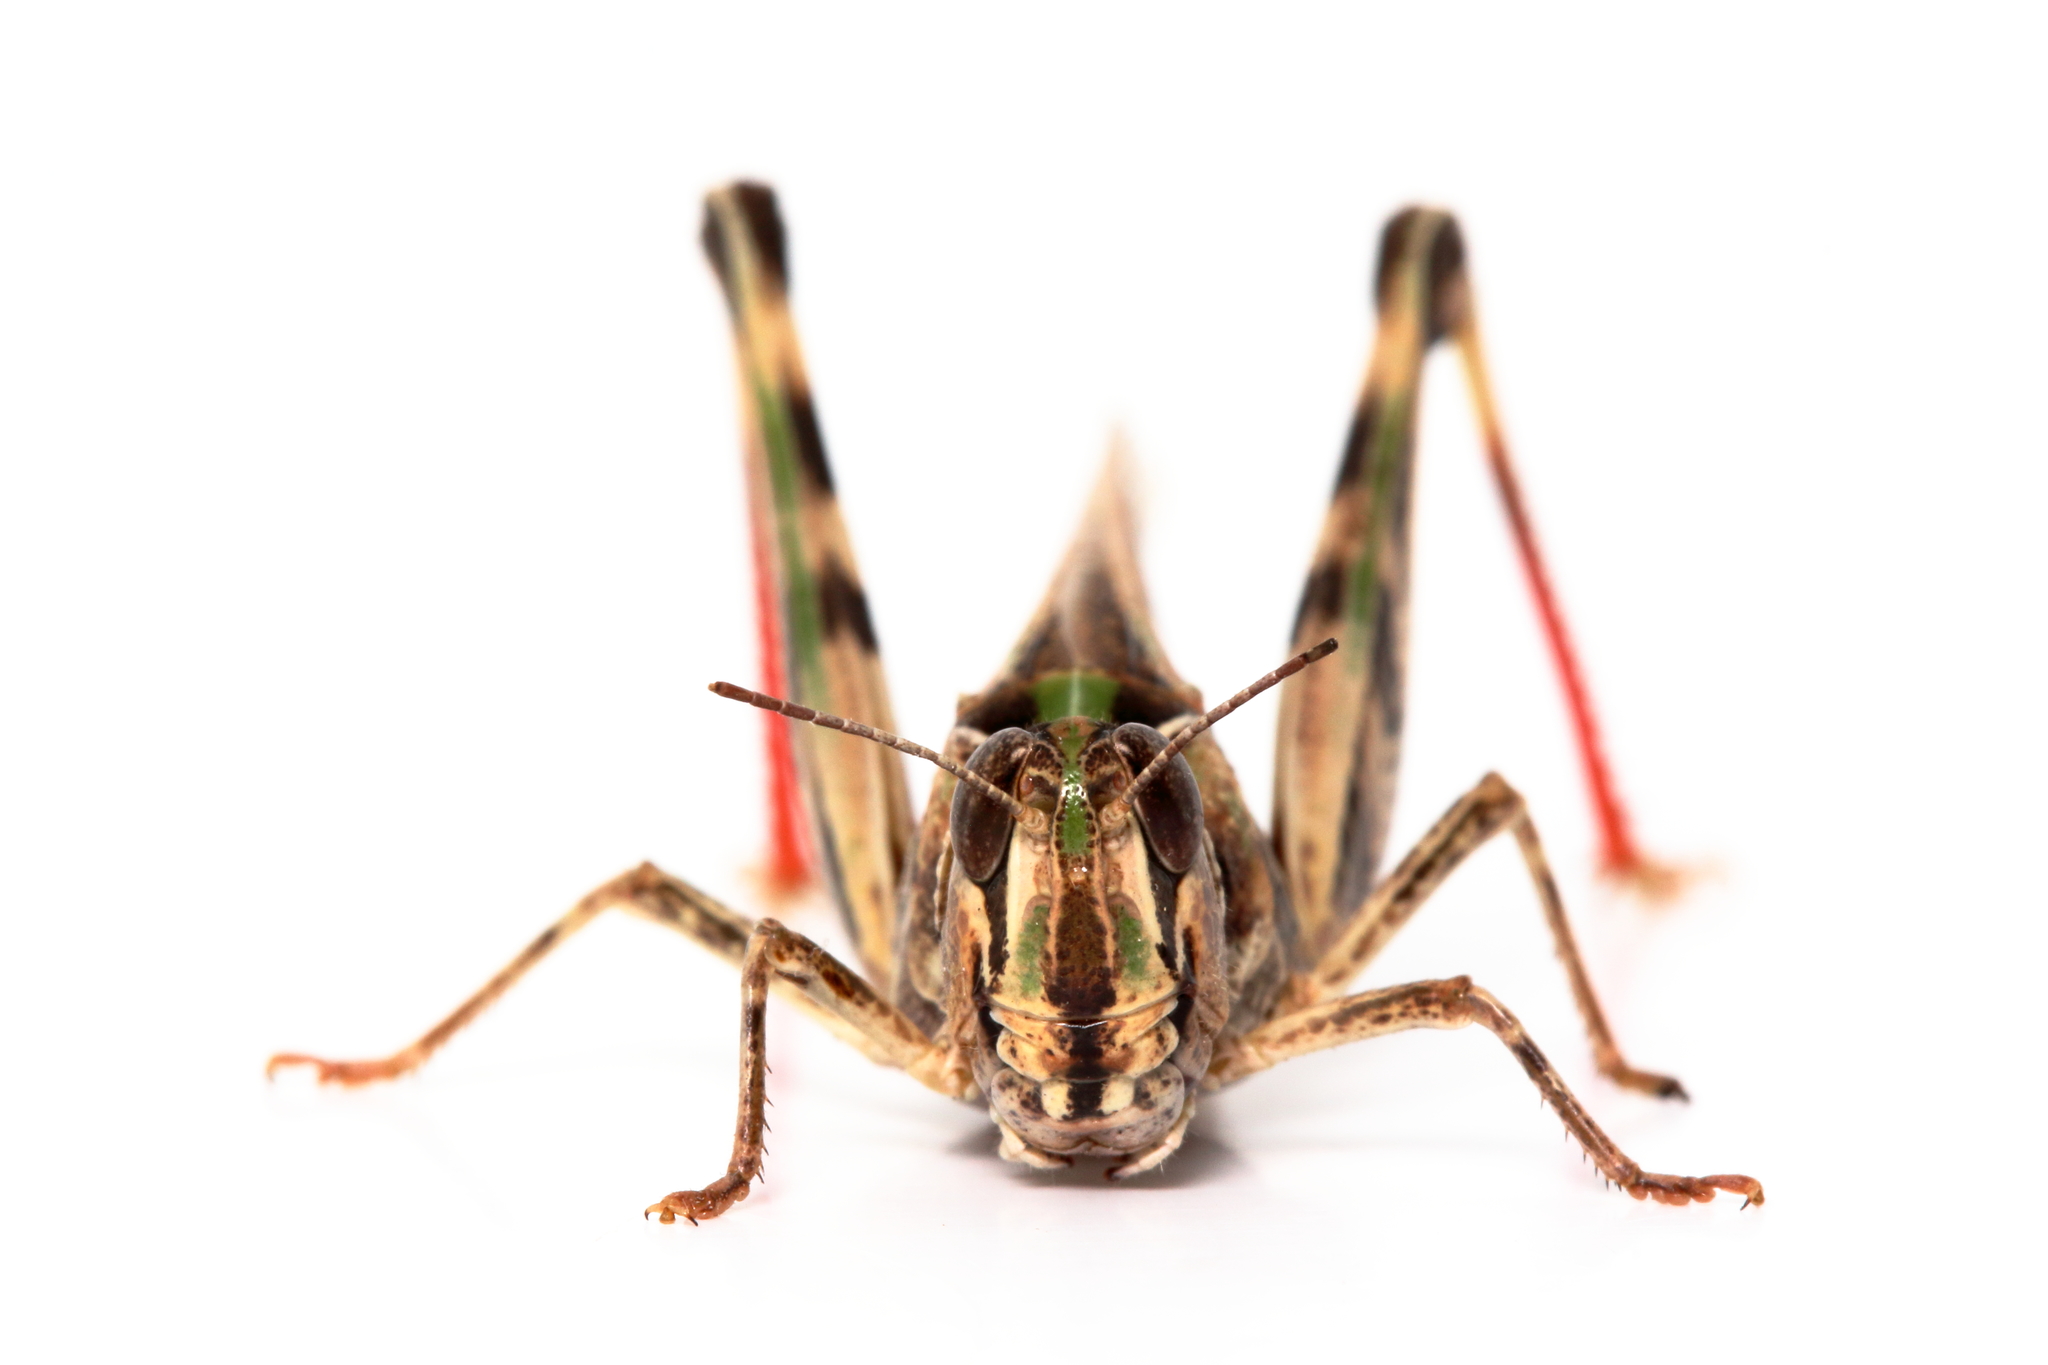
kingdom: Animalia
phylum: Arthropoda
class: Insecta
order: Orthoptera
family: Acrididae
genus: Chortoicetes
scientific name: Chortoicetes terminifera
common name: Australian plague locust
